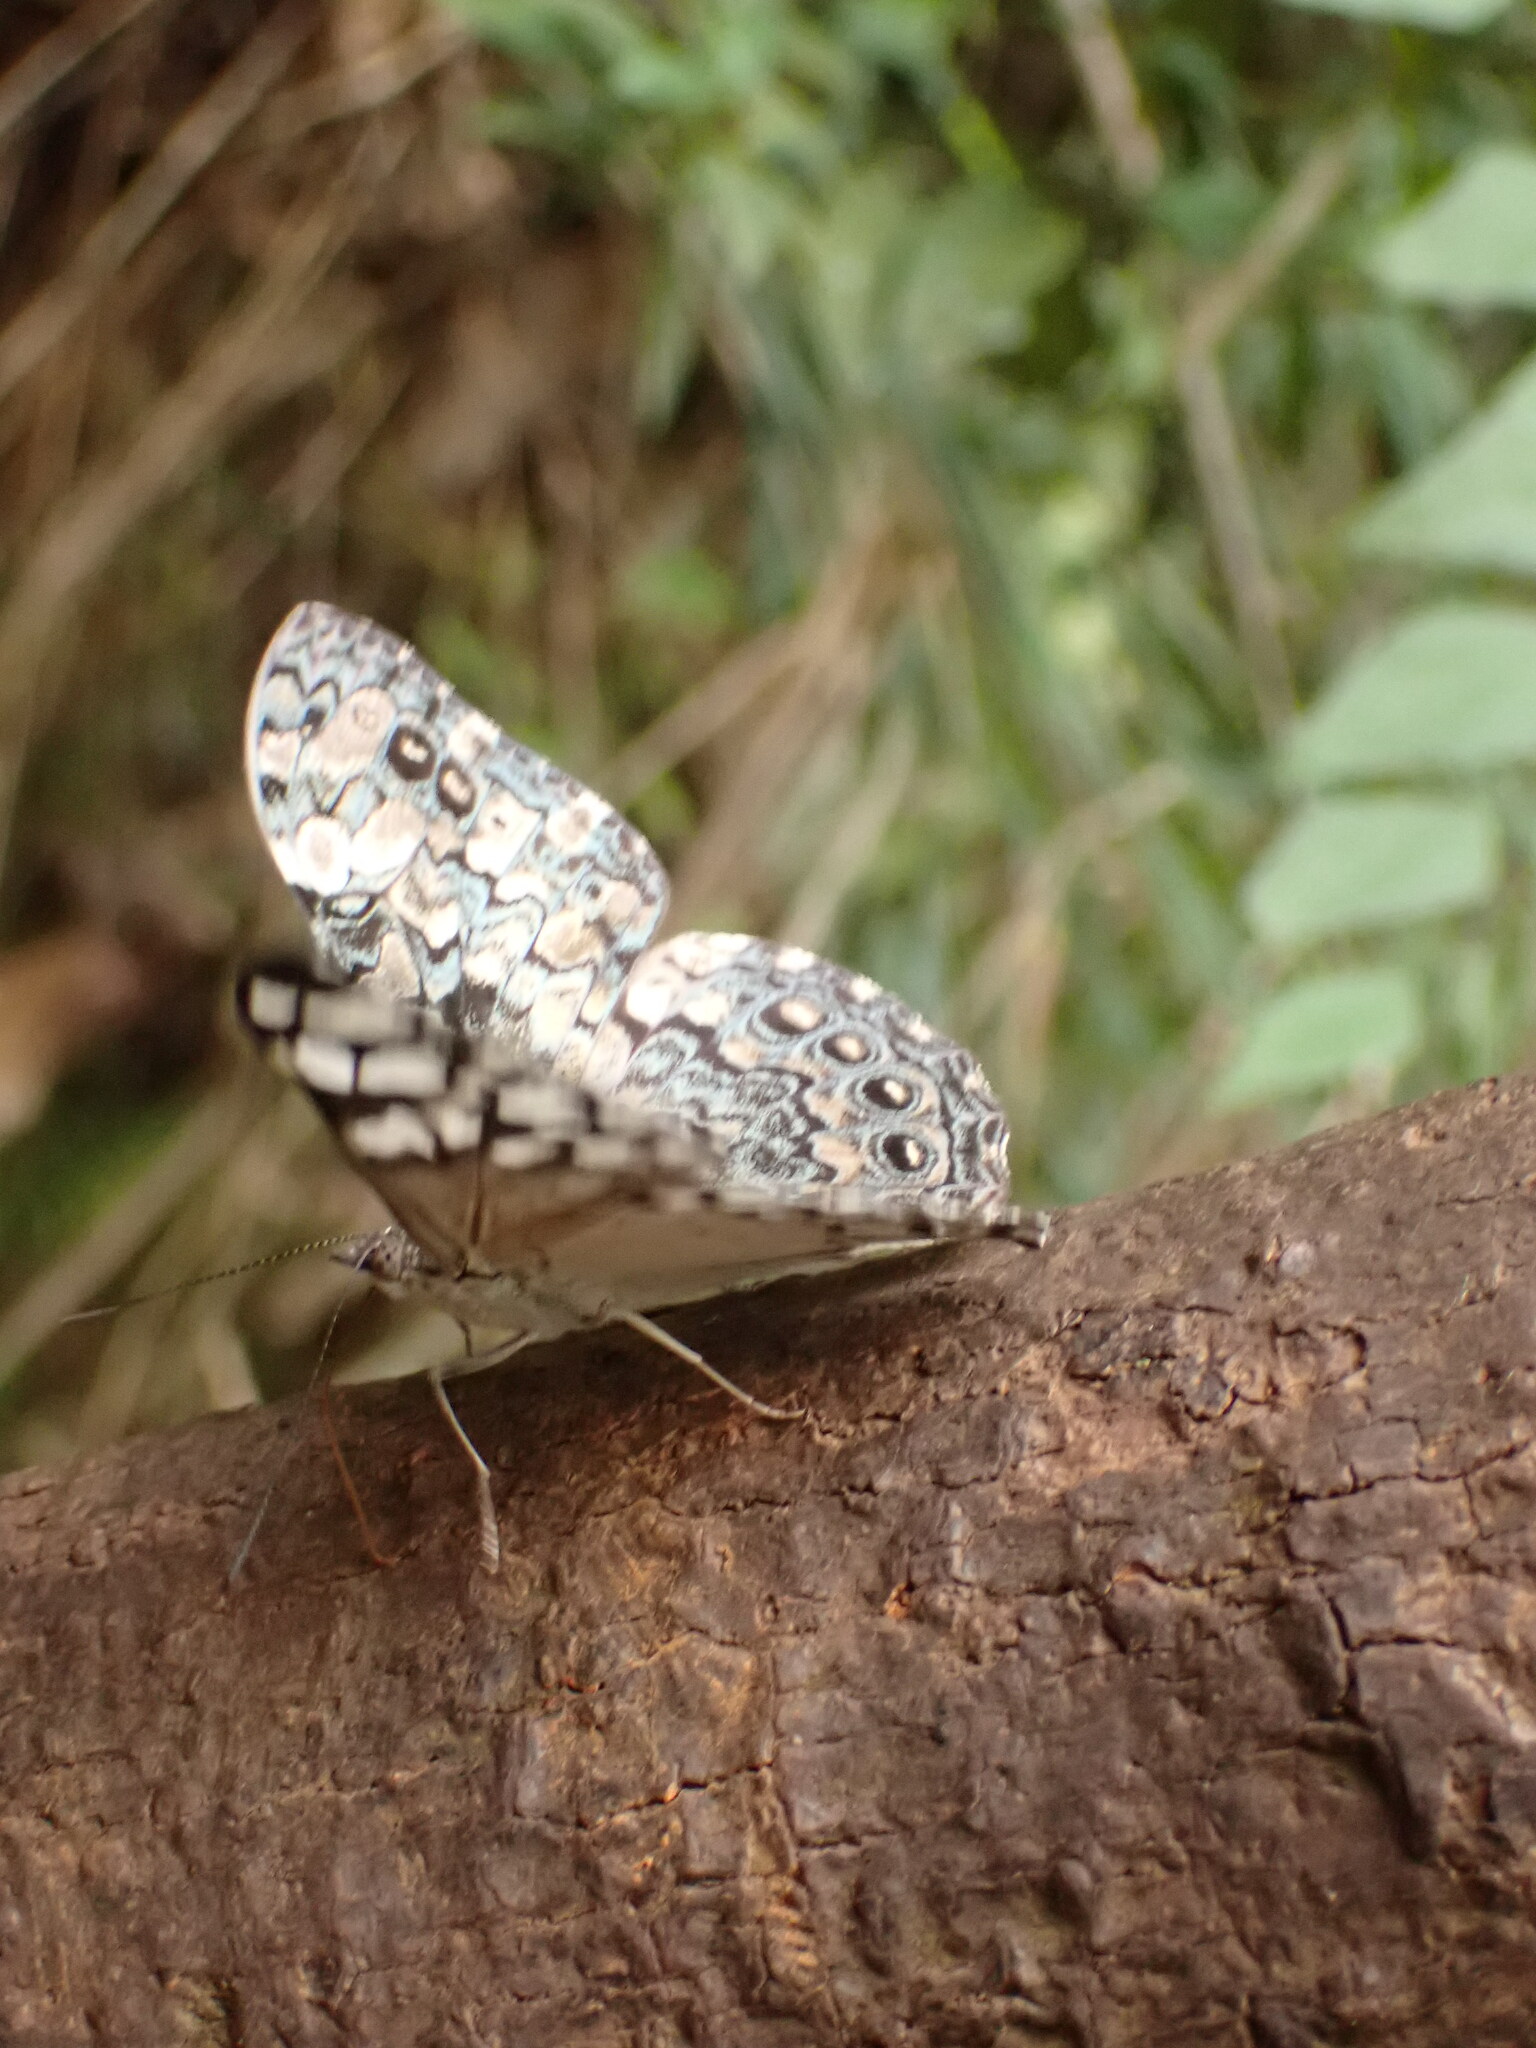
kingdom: Animalia
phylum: Arthropoda
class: Insecta
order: Lepidoptera
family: Nymphalidae
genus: Hamadryas
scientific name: Hamadryas epinome
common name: Epinome cracker
